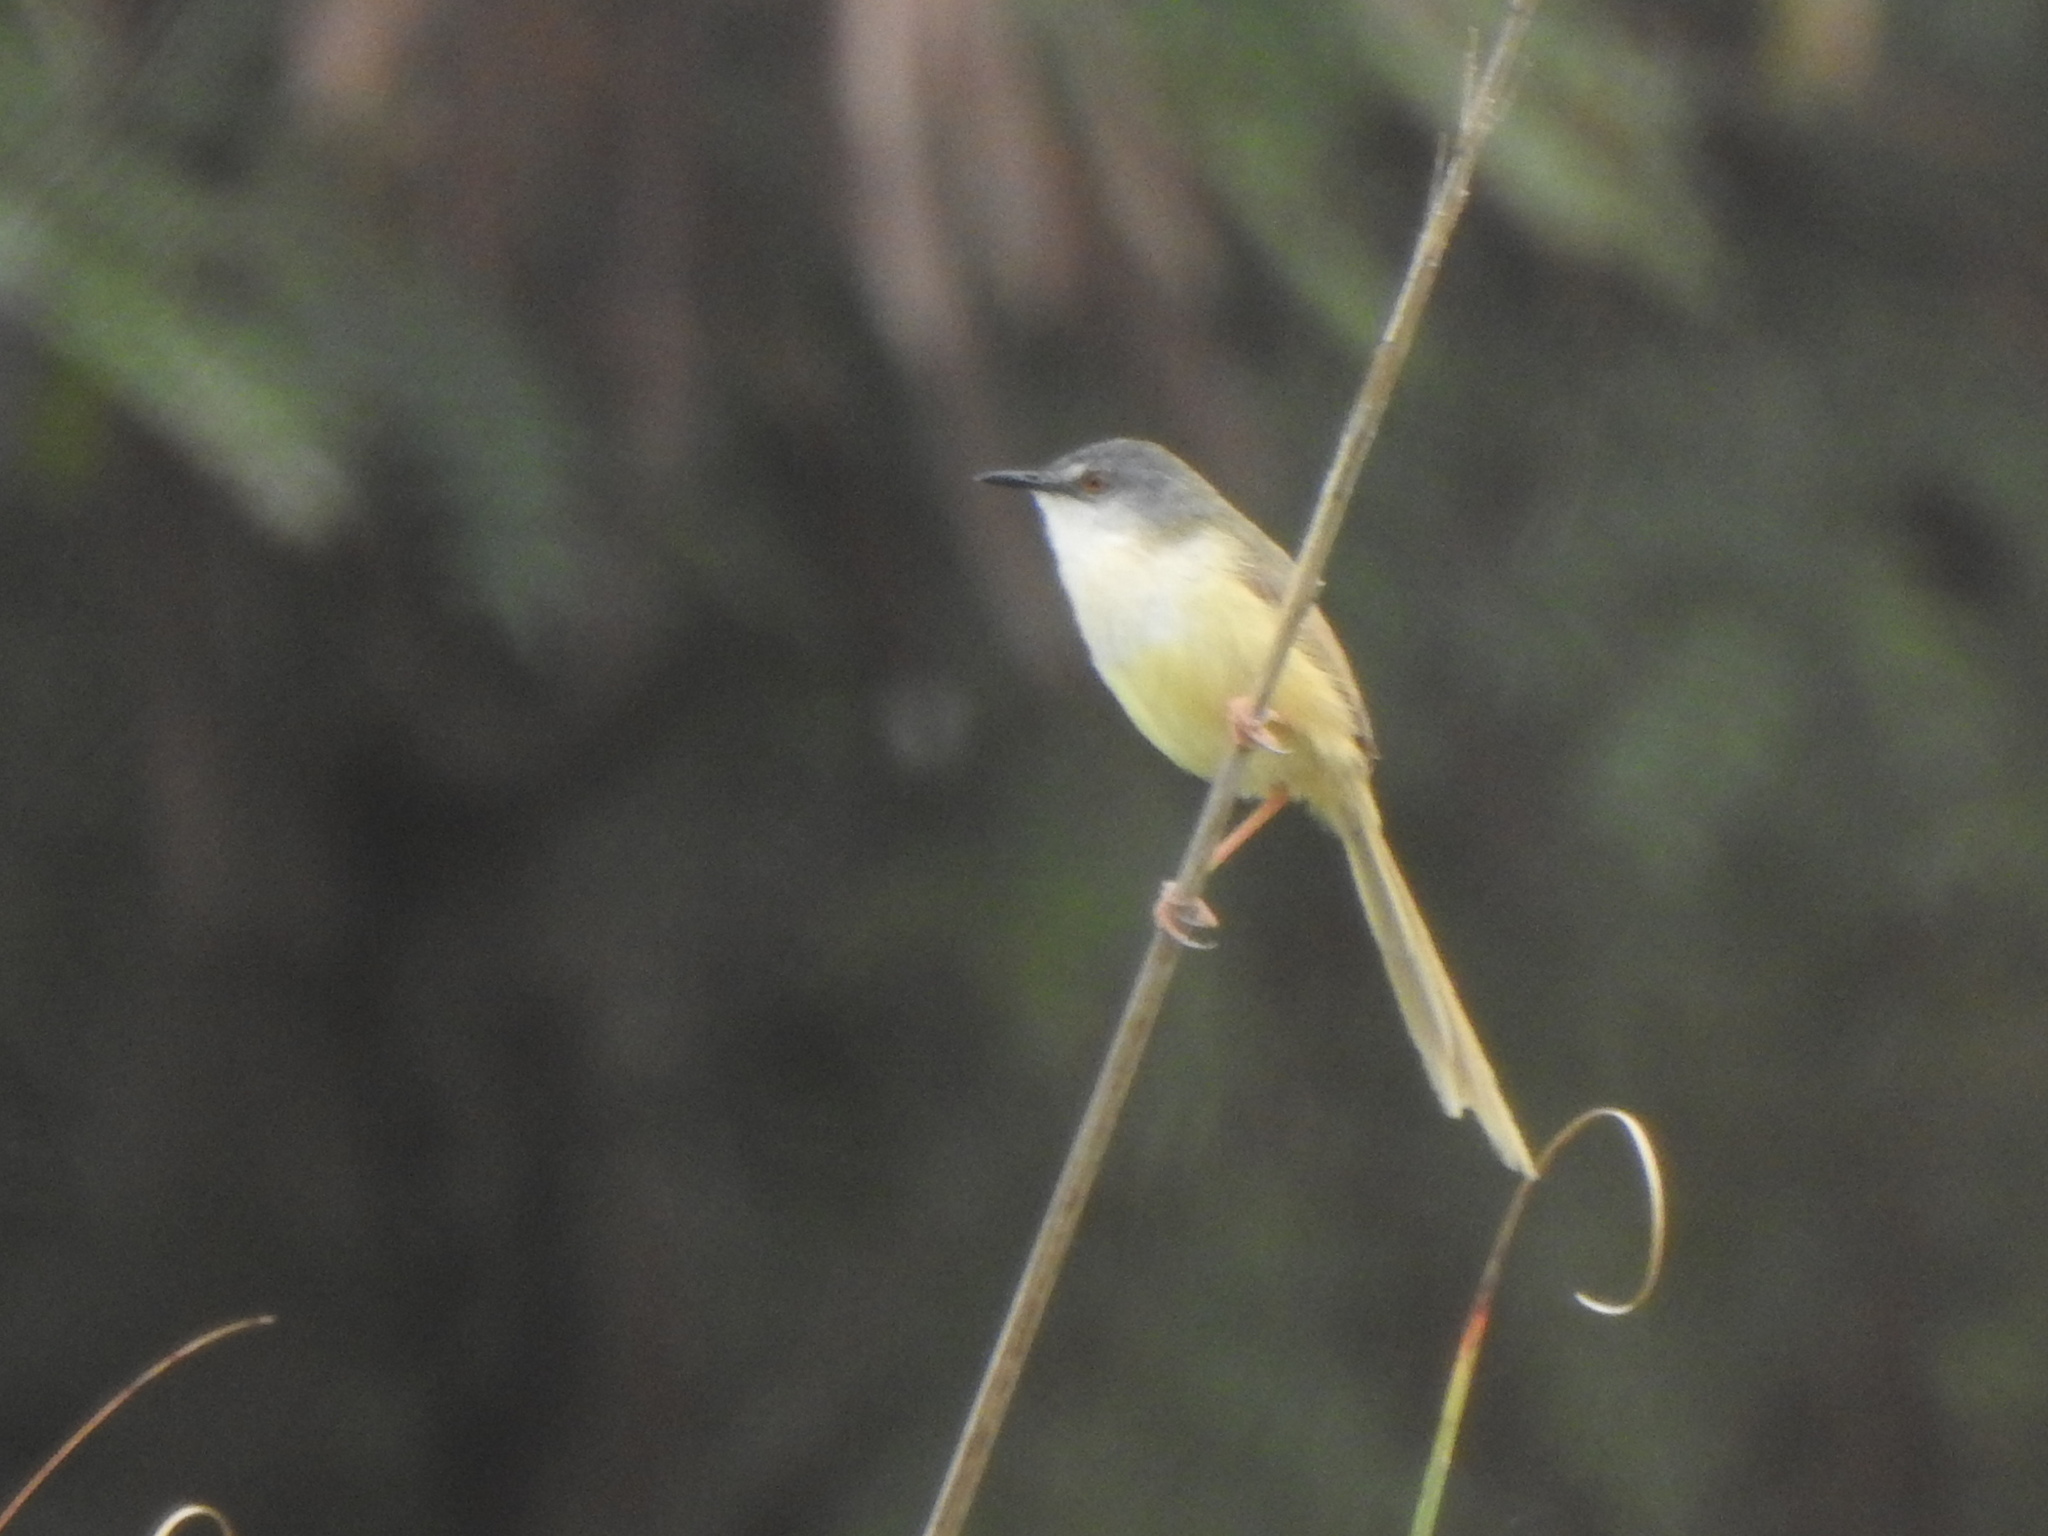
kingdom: Animalia
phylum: Chordata
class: Aves
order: Passeriformes
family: Cisticolidae
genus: Prinia
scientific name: Prinia flaviventris
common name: Yellow-bellied prinia
